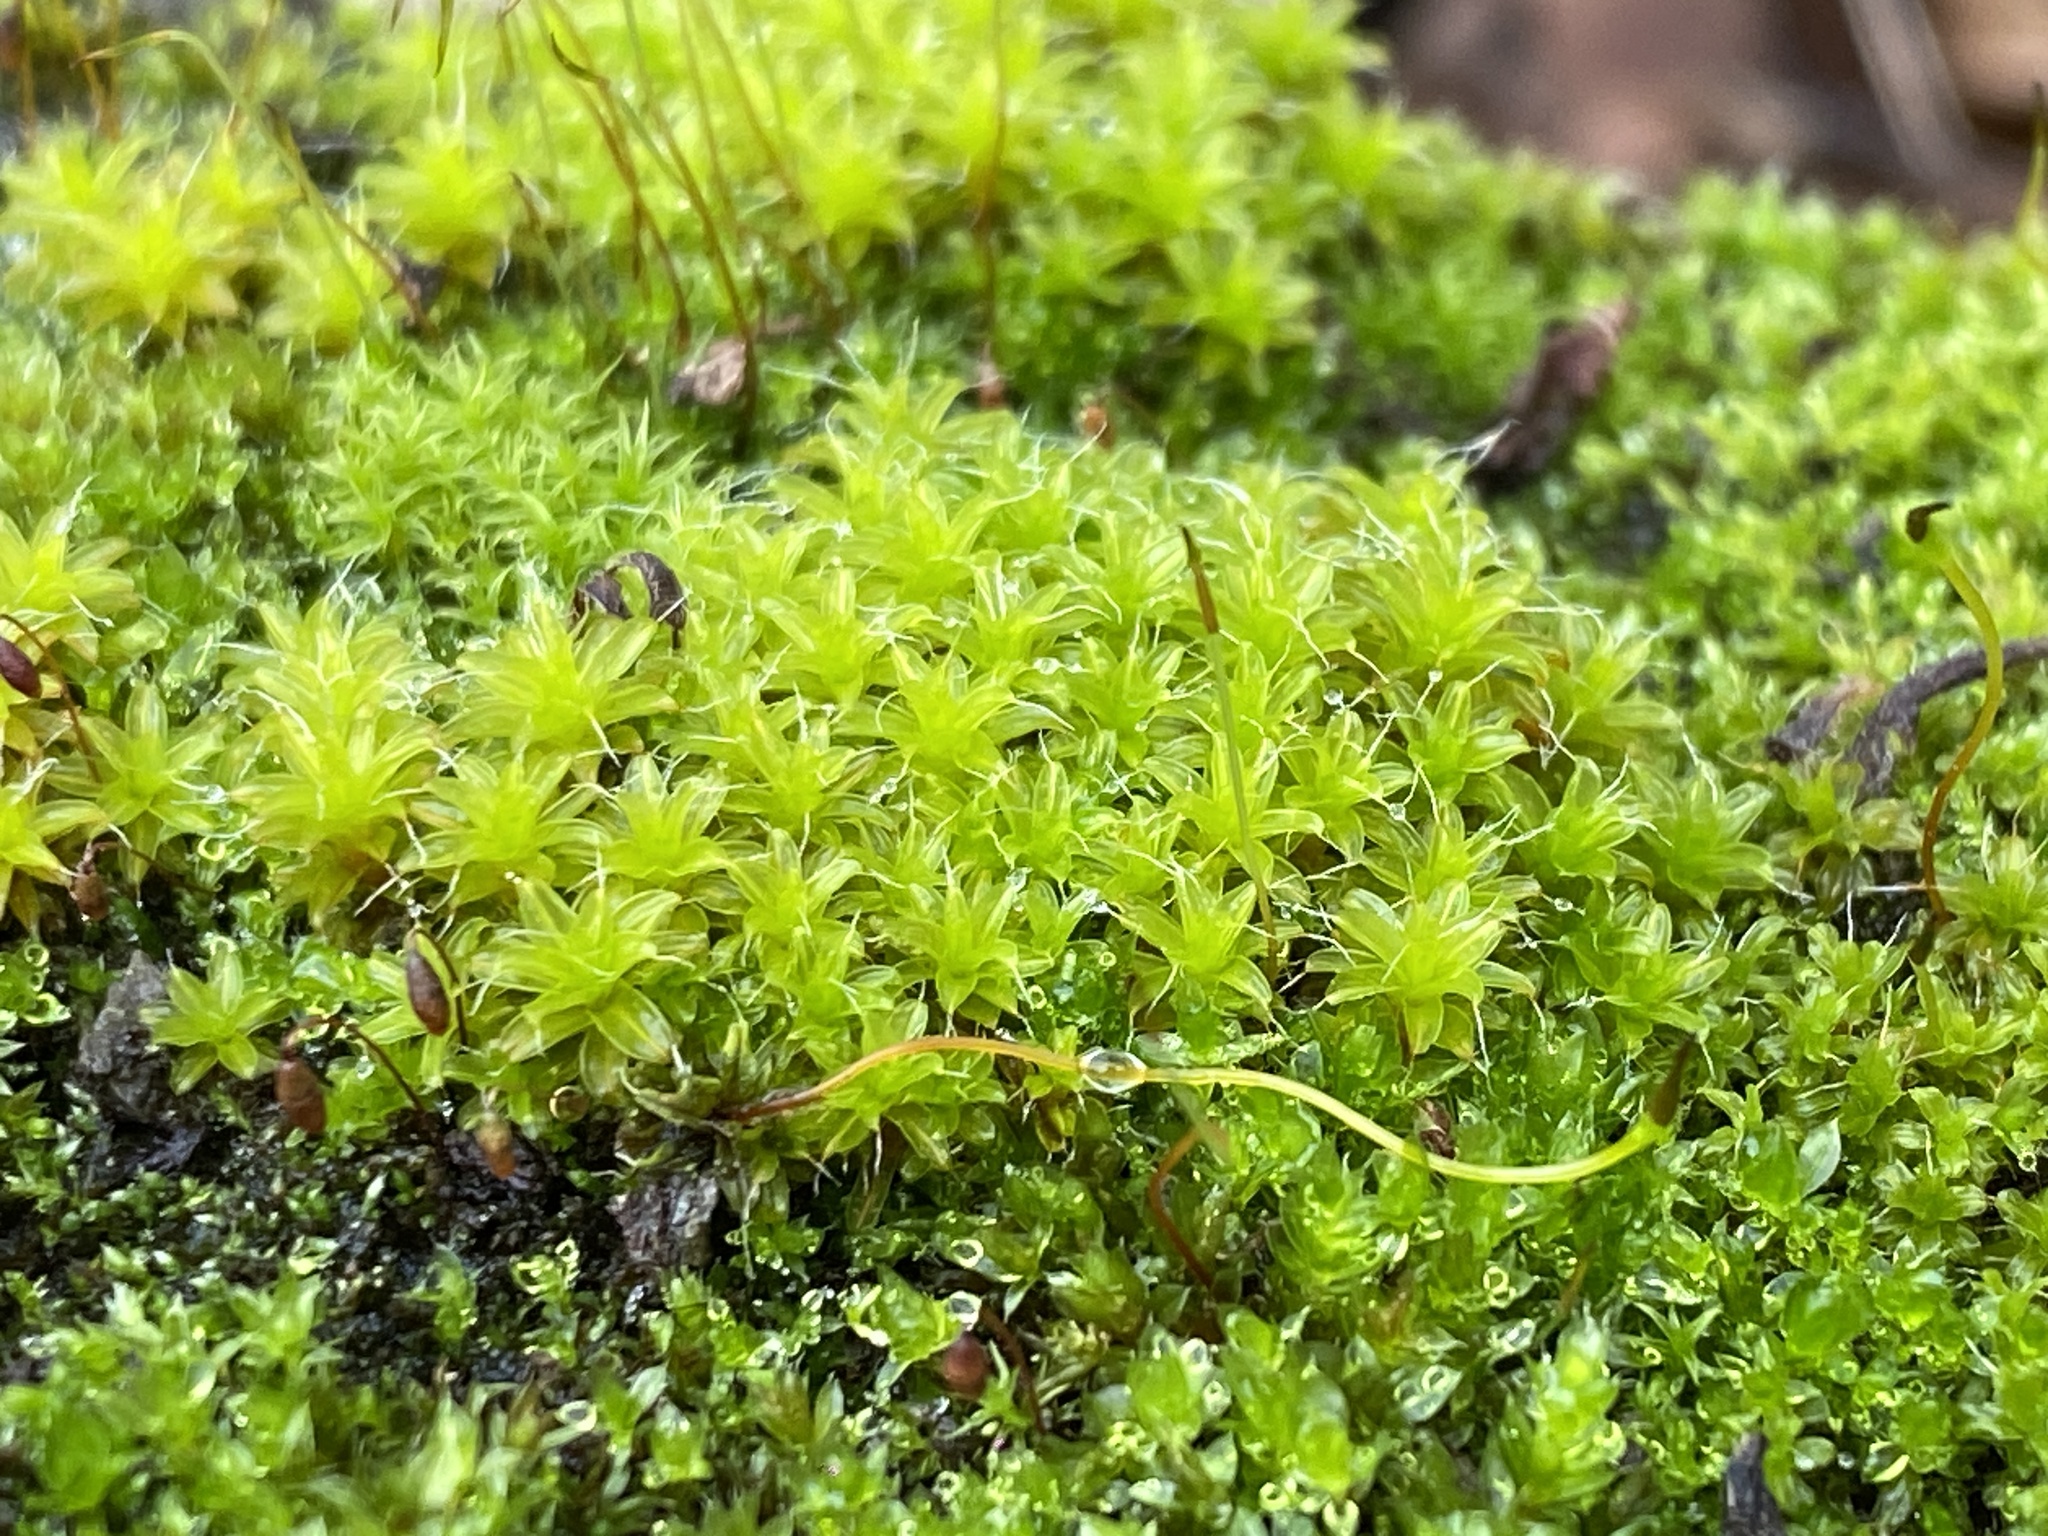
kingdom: Plantae
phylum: Bryophyta
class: Bryopsida
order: Pottiales
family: Pottiaceae
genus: Syntrichia
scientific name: Syntrichia ruralis
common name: Sidewalk screw moss
